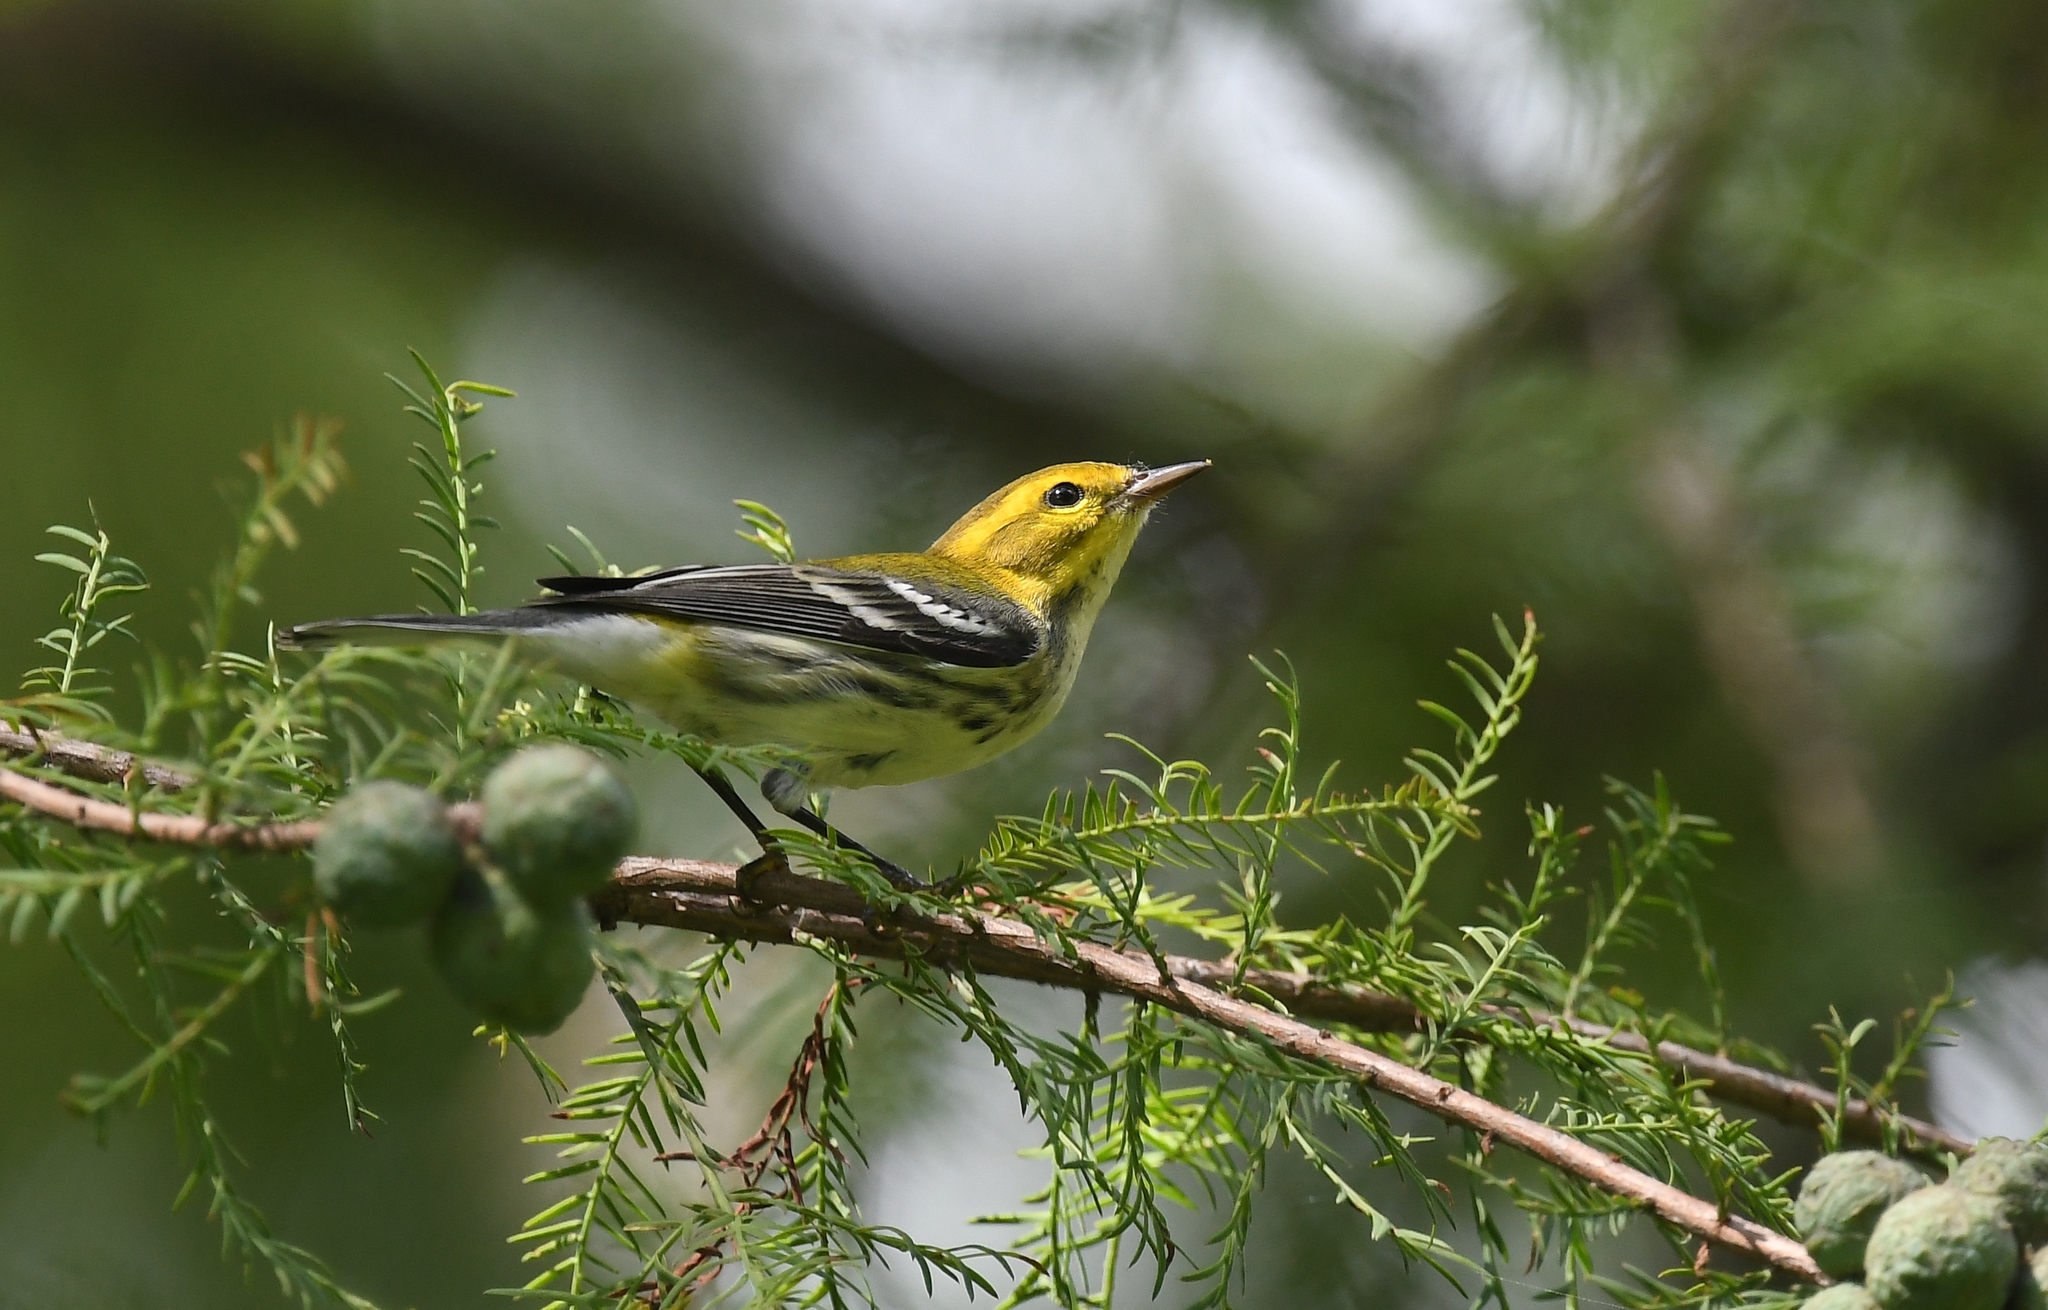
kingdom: Animalia
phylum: Chordata
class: Aves
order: Passeriformes
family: Parulidae
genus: Setophaga
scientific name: Setophaga virens
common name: Black-throated green warbler
